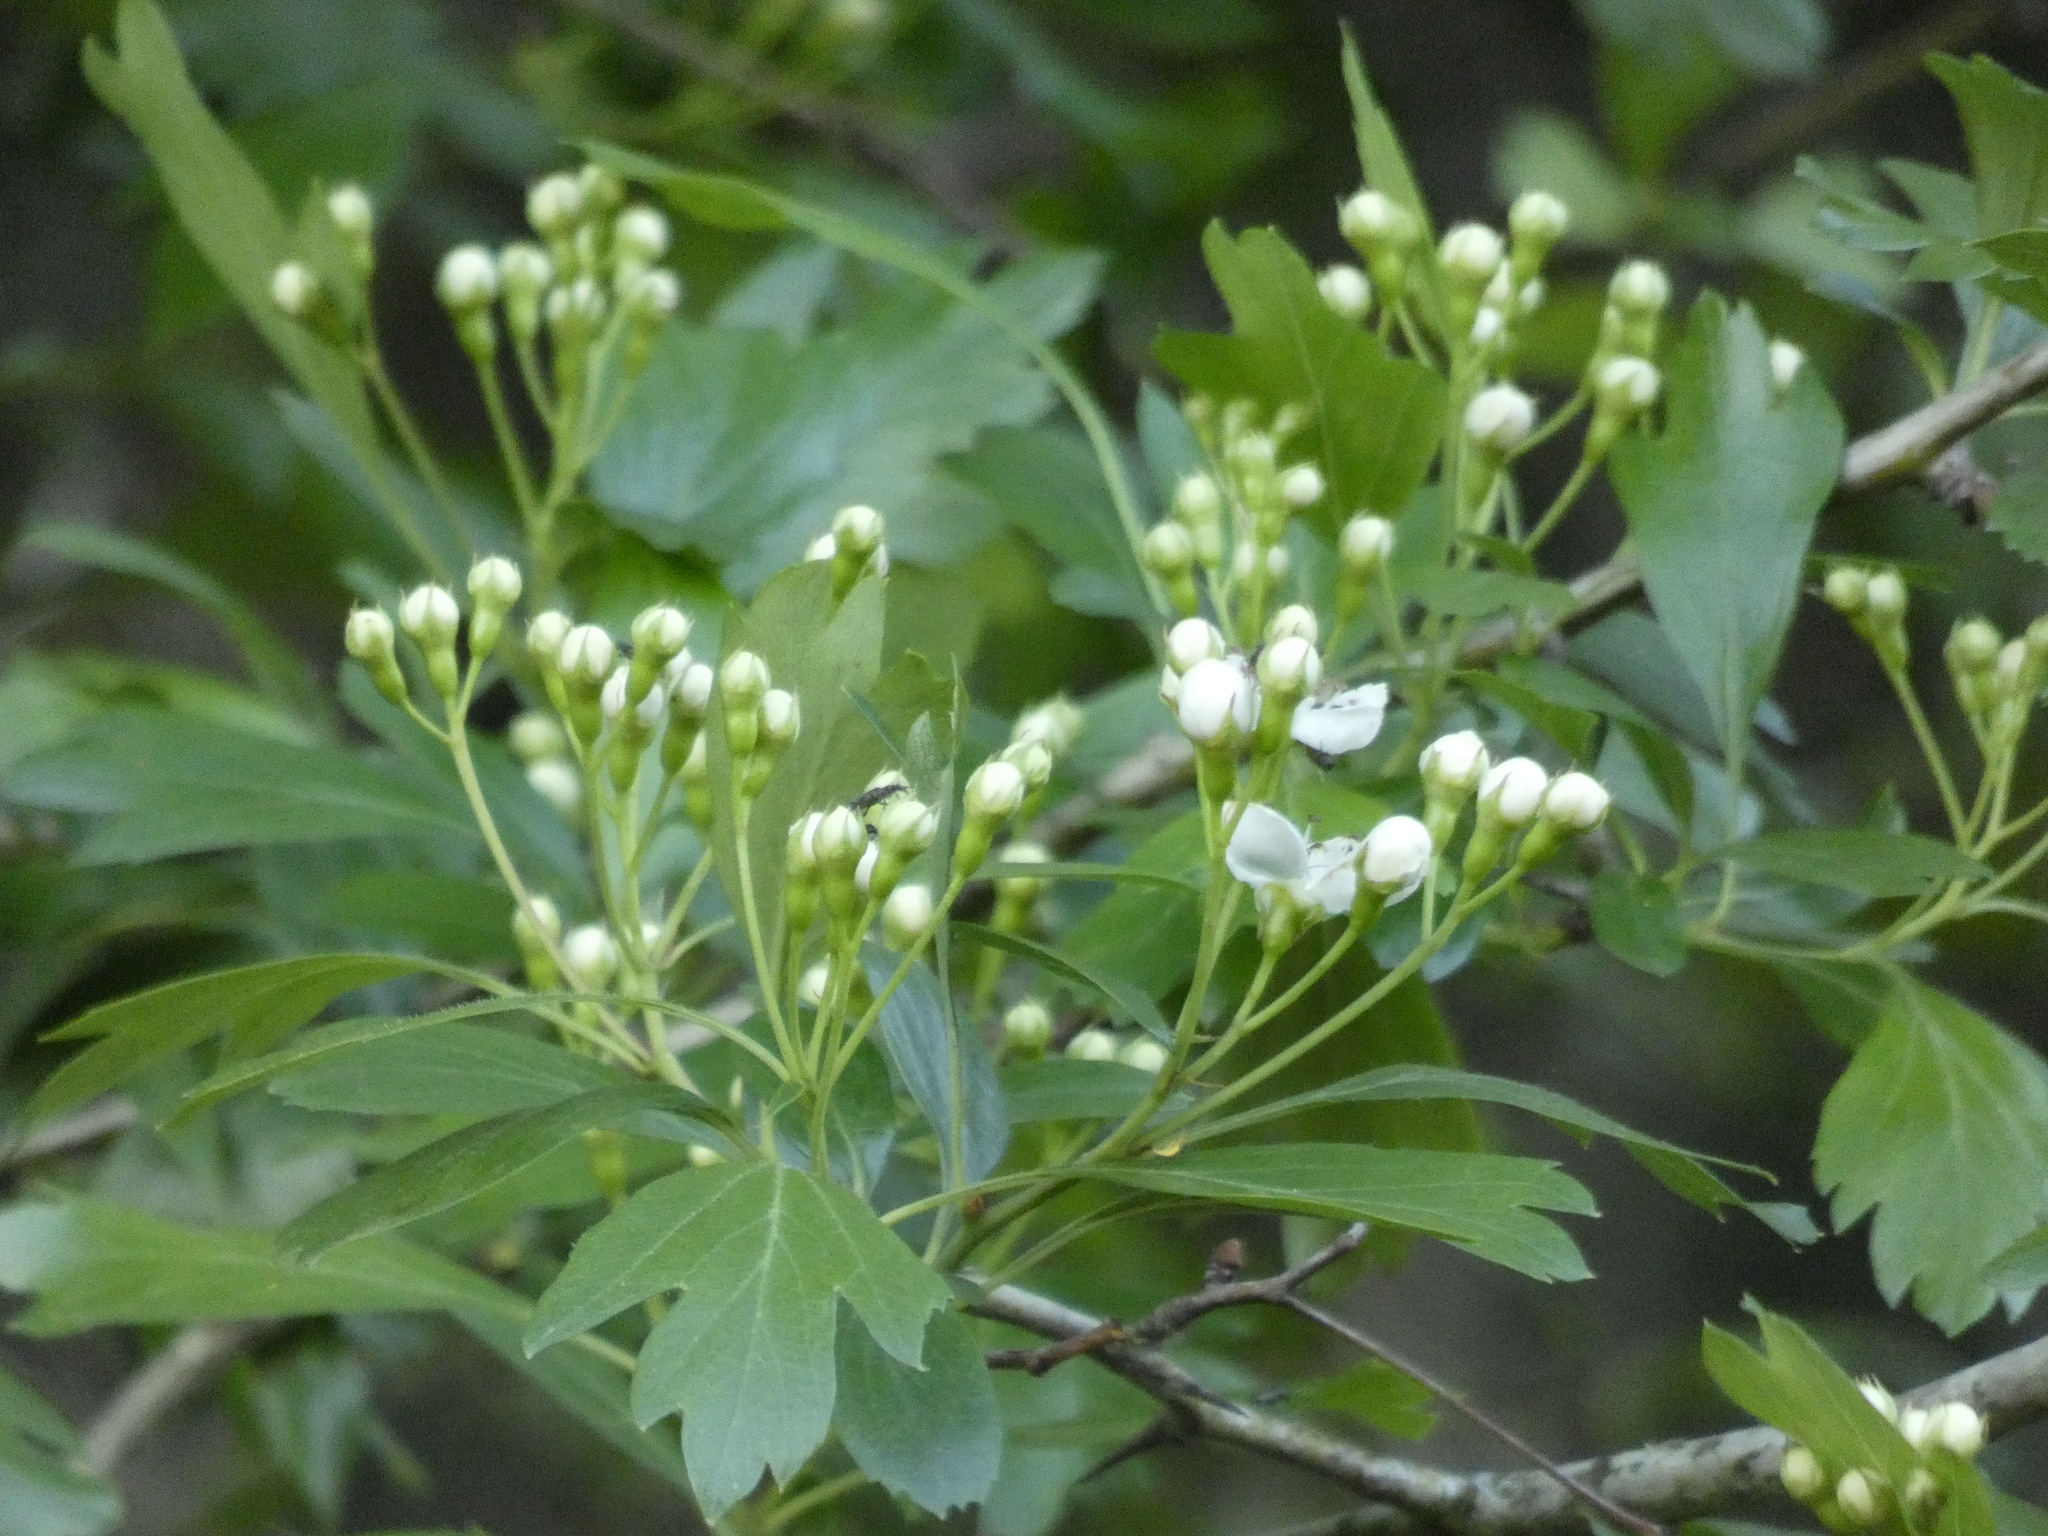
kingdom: Plantae
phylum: Tracheophyta
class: Magnoliopsida
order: Rosales
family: Rosaceae
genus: Crataegus
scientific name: Crataegus monogyna
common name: Hawthorn
